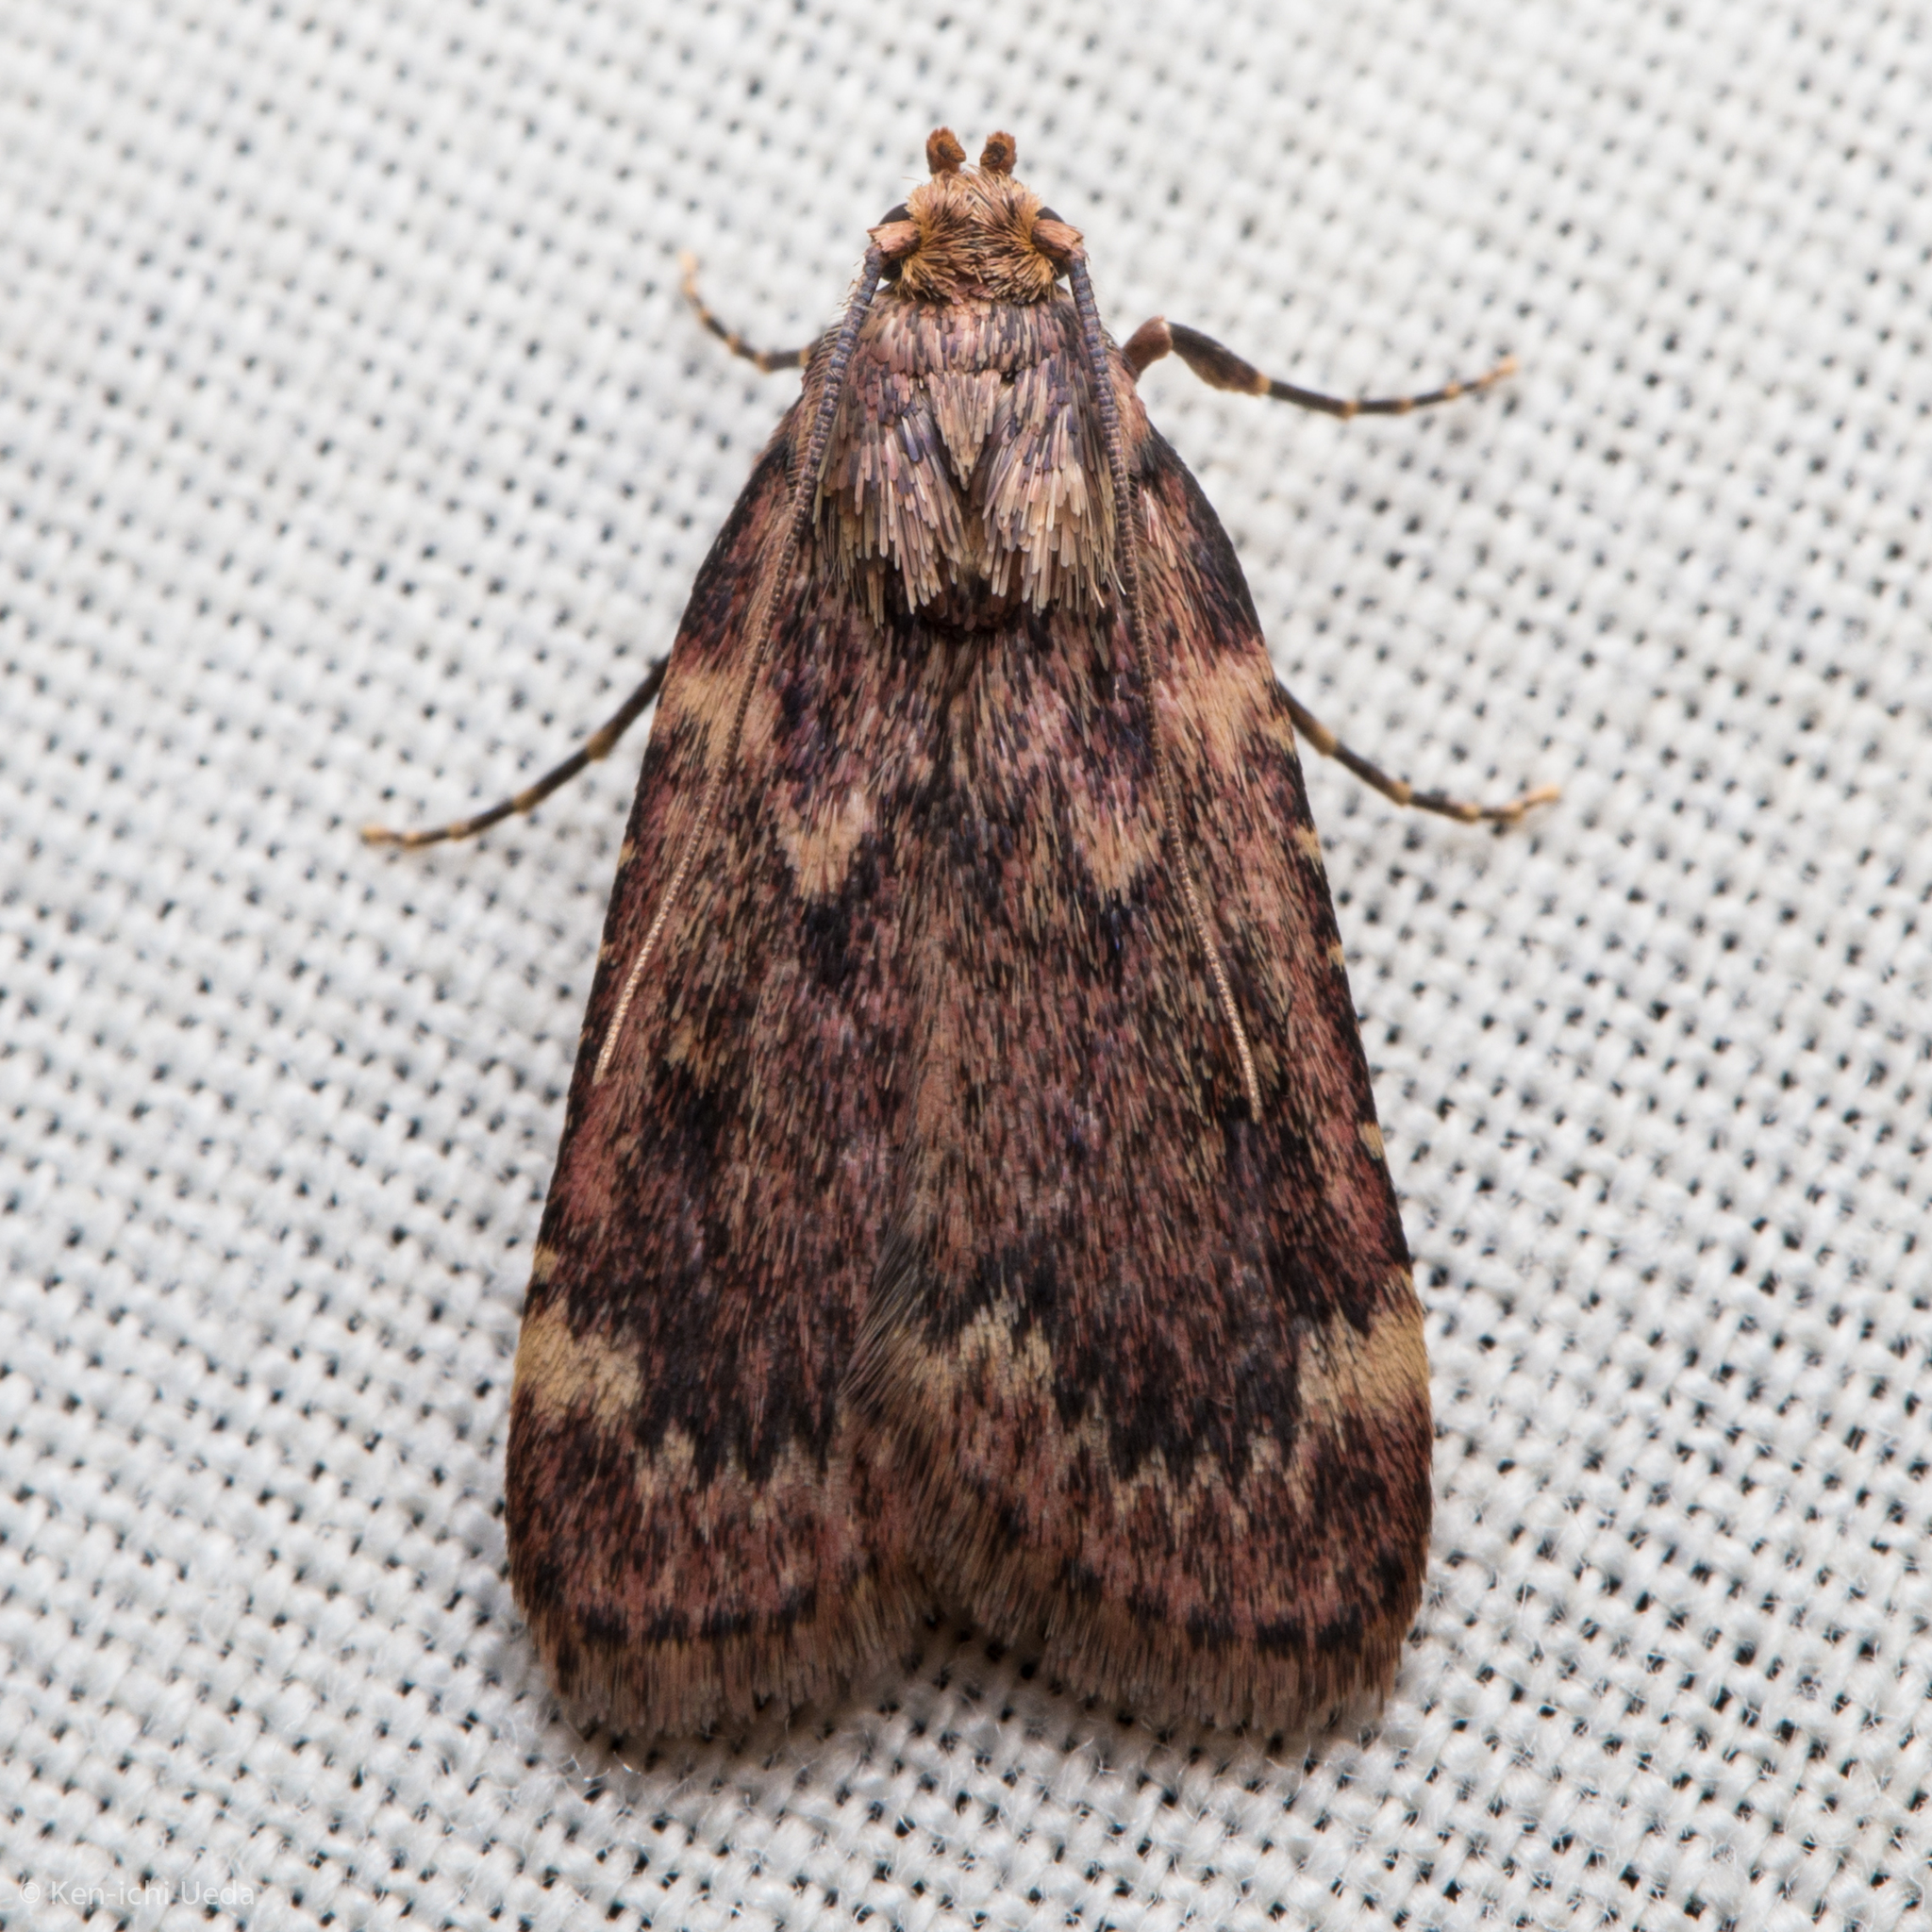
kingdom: Animalia
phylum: Arthropoda
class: Insecta
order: Lepidoptera
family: Pyralidae
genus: Aglossa
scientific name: Aglossa disciferalis
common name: Pink-masked pyralid moth
